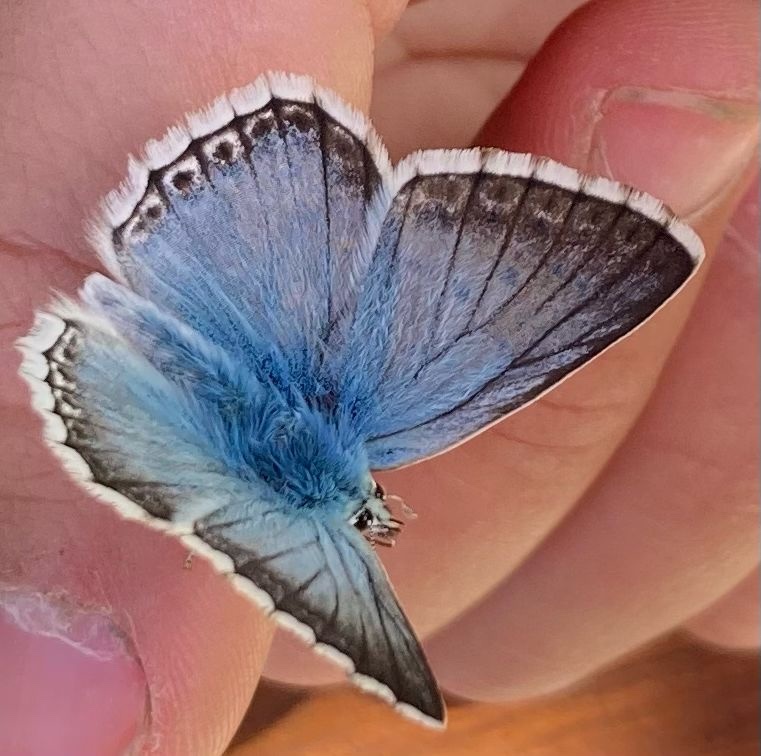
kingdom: Animalia
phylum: Arthropoda
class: Insecta
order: Lepidoptera
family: Lycaenidae
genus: Lysandra
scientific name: Lysandra coridon
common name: Chalkhill blue
